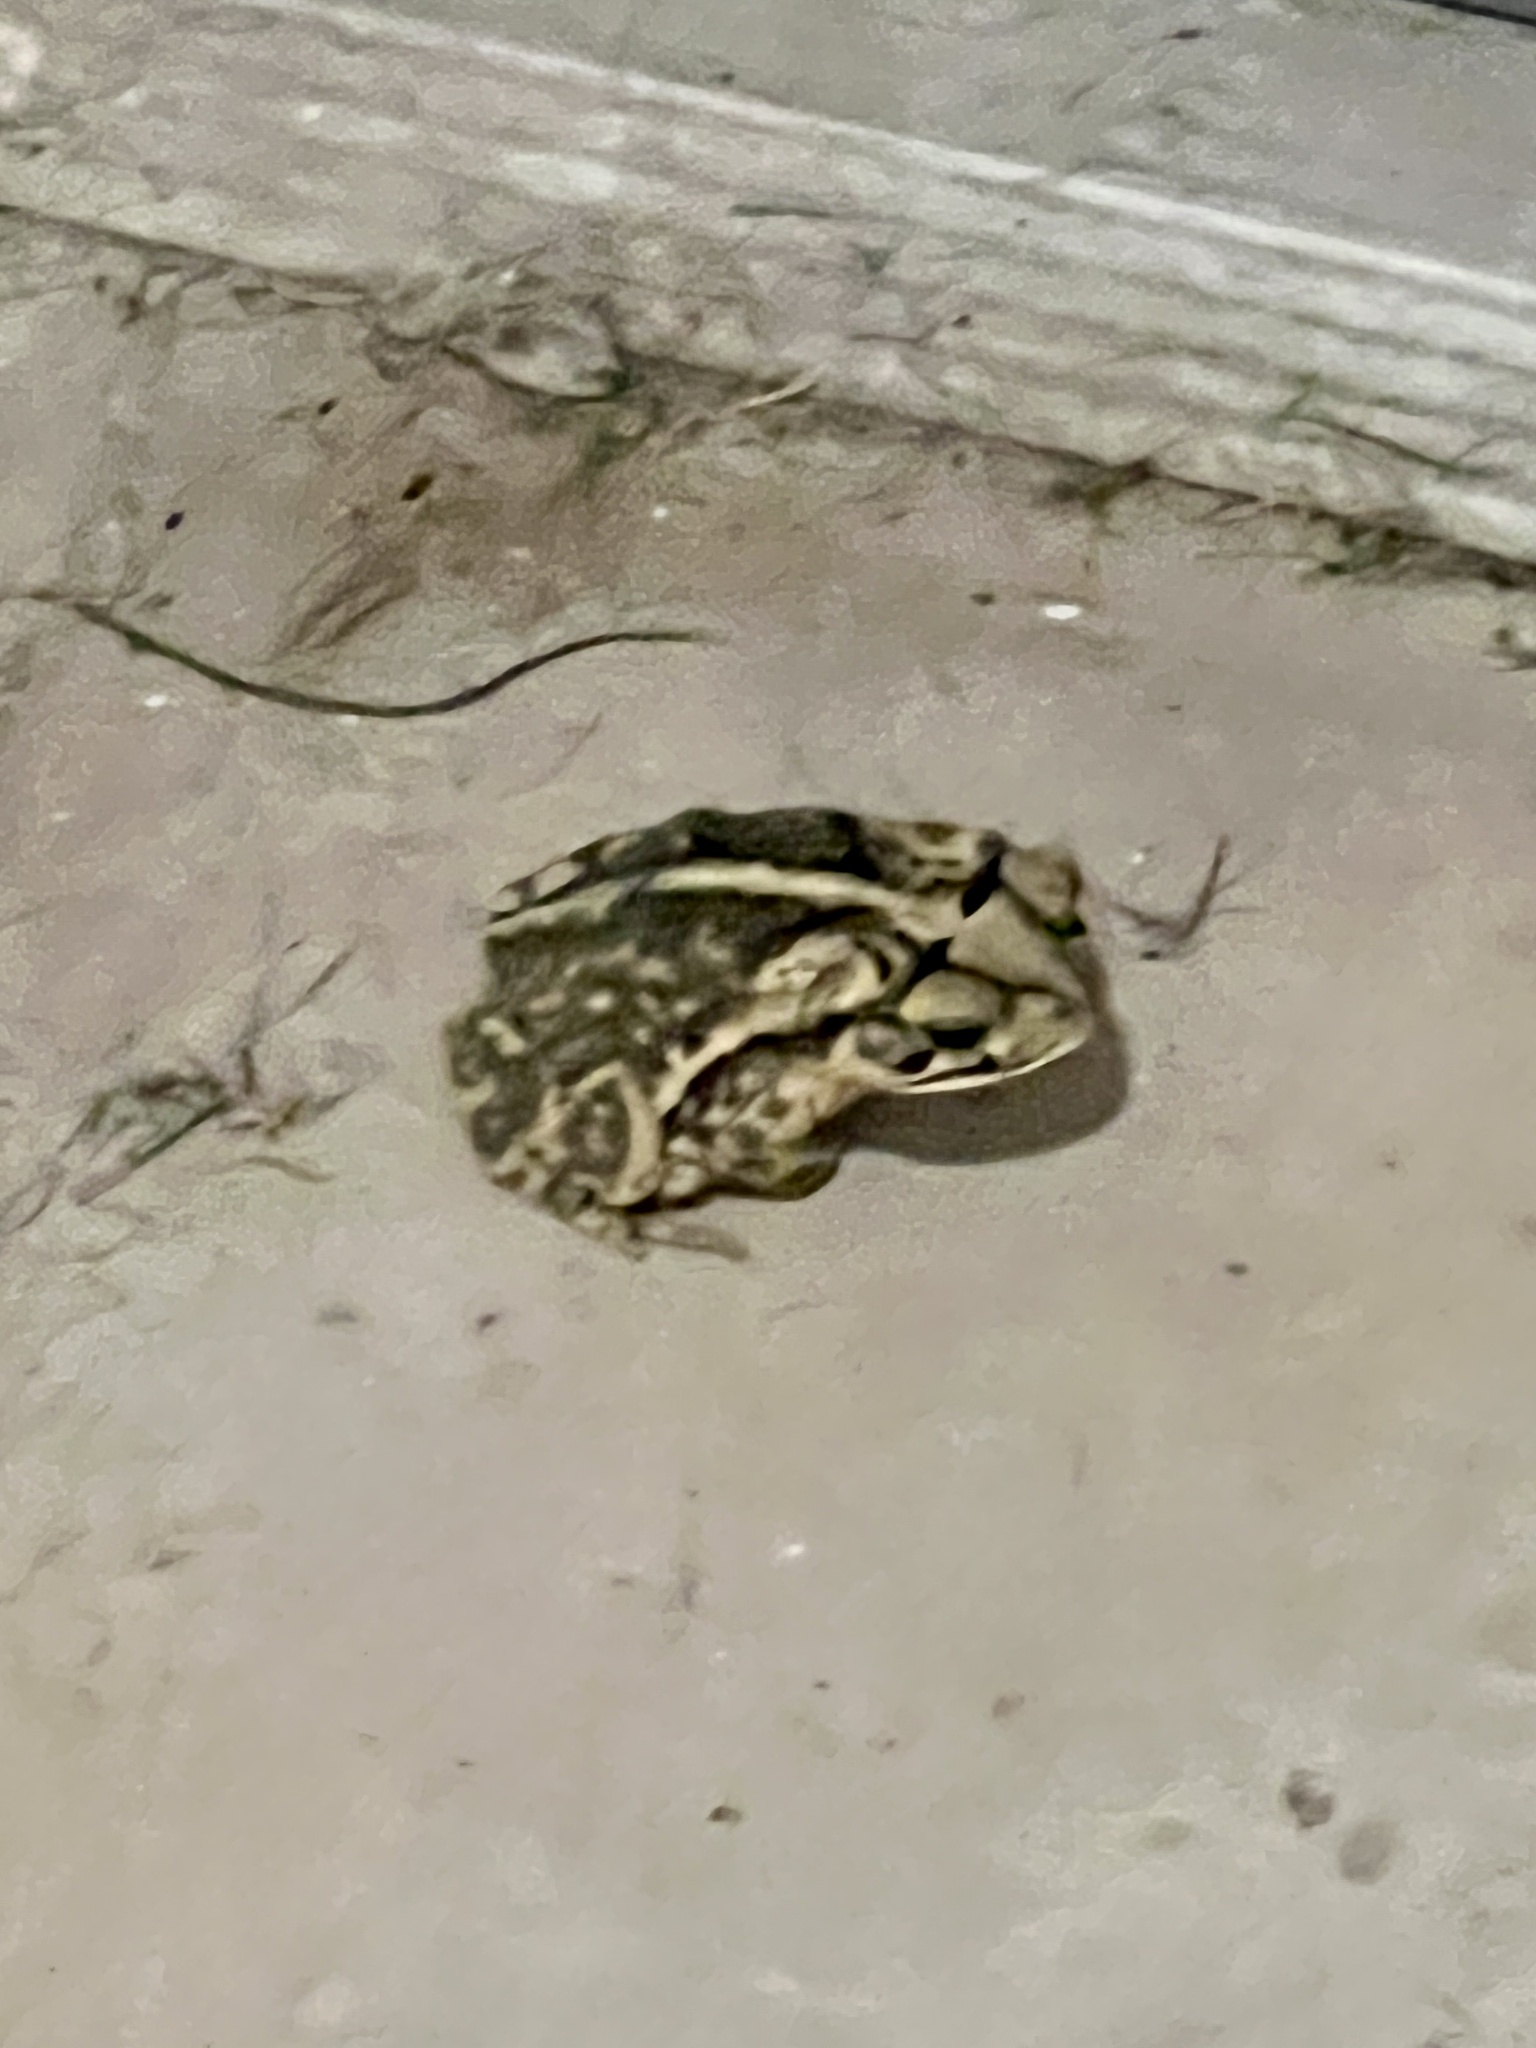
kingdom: Animalia
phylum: Chordata
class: Amphibia
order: Anura
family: Bufonidae
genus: Incilius
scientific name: Incilius nebulifer
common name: Gulf coast toad
